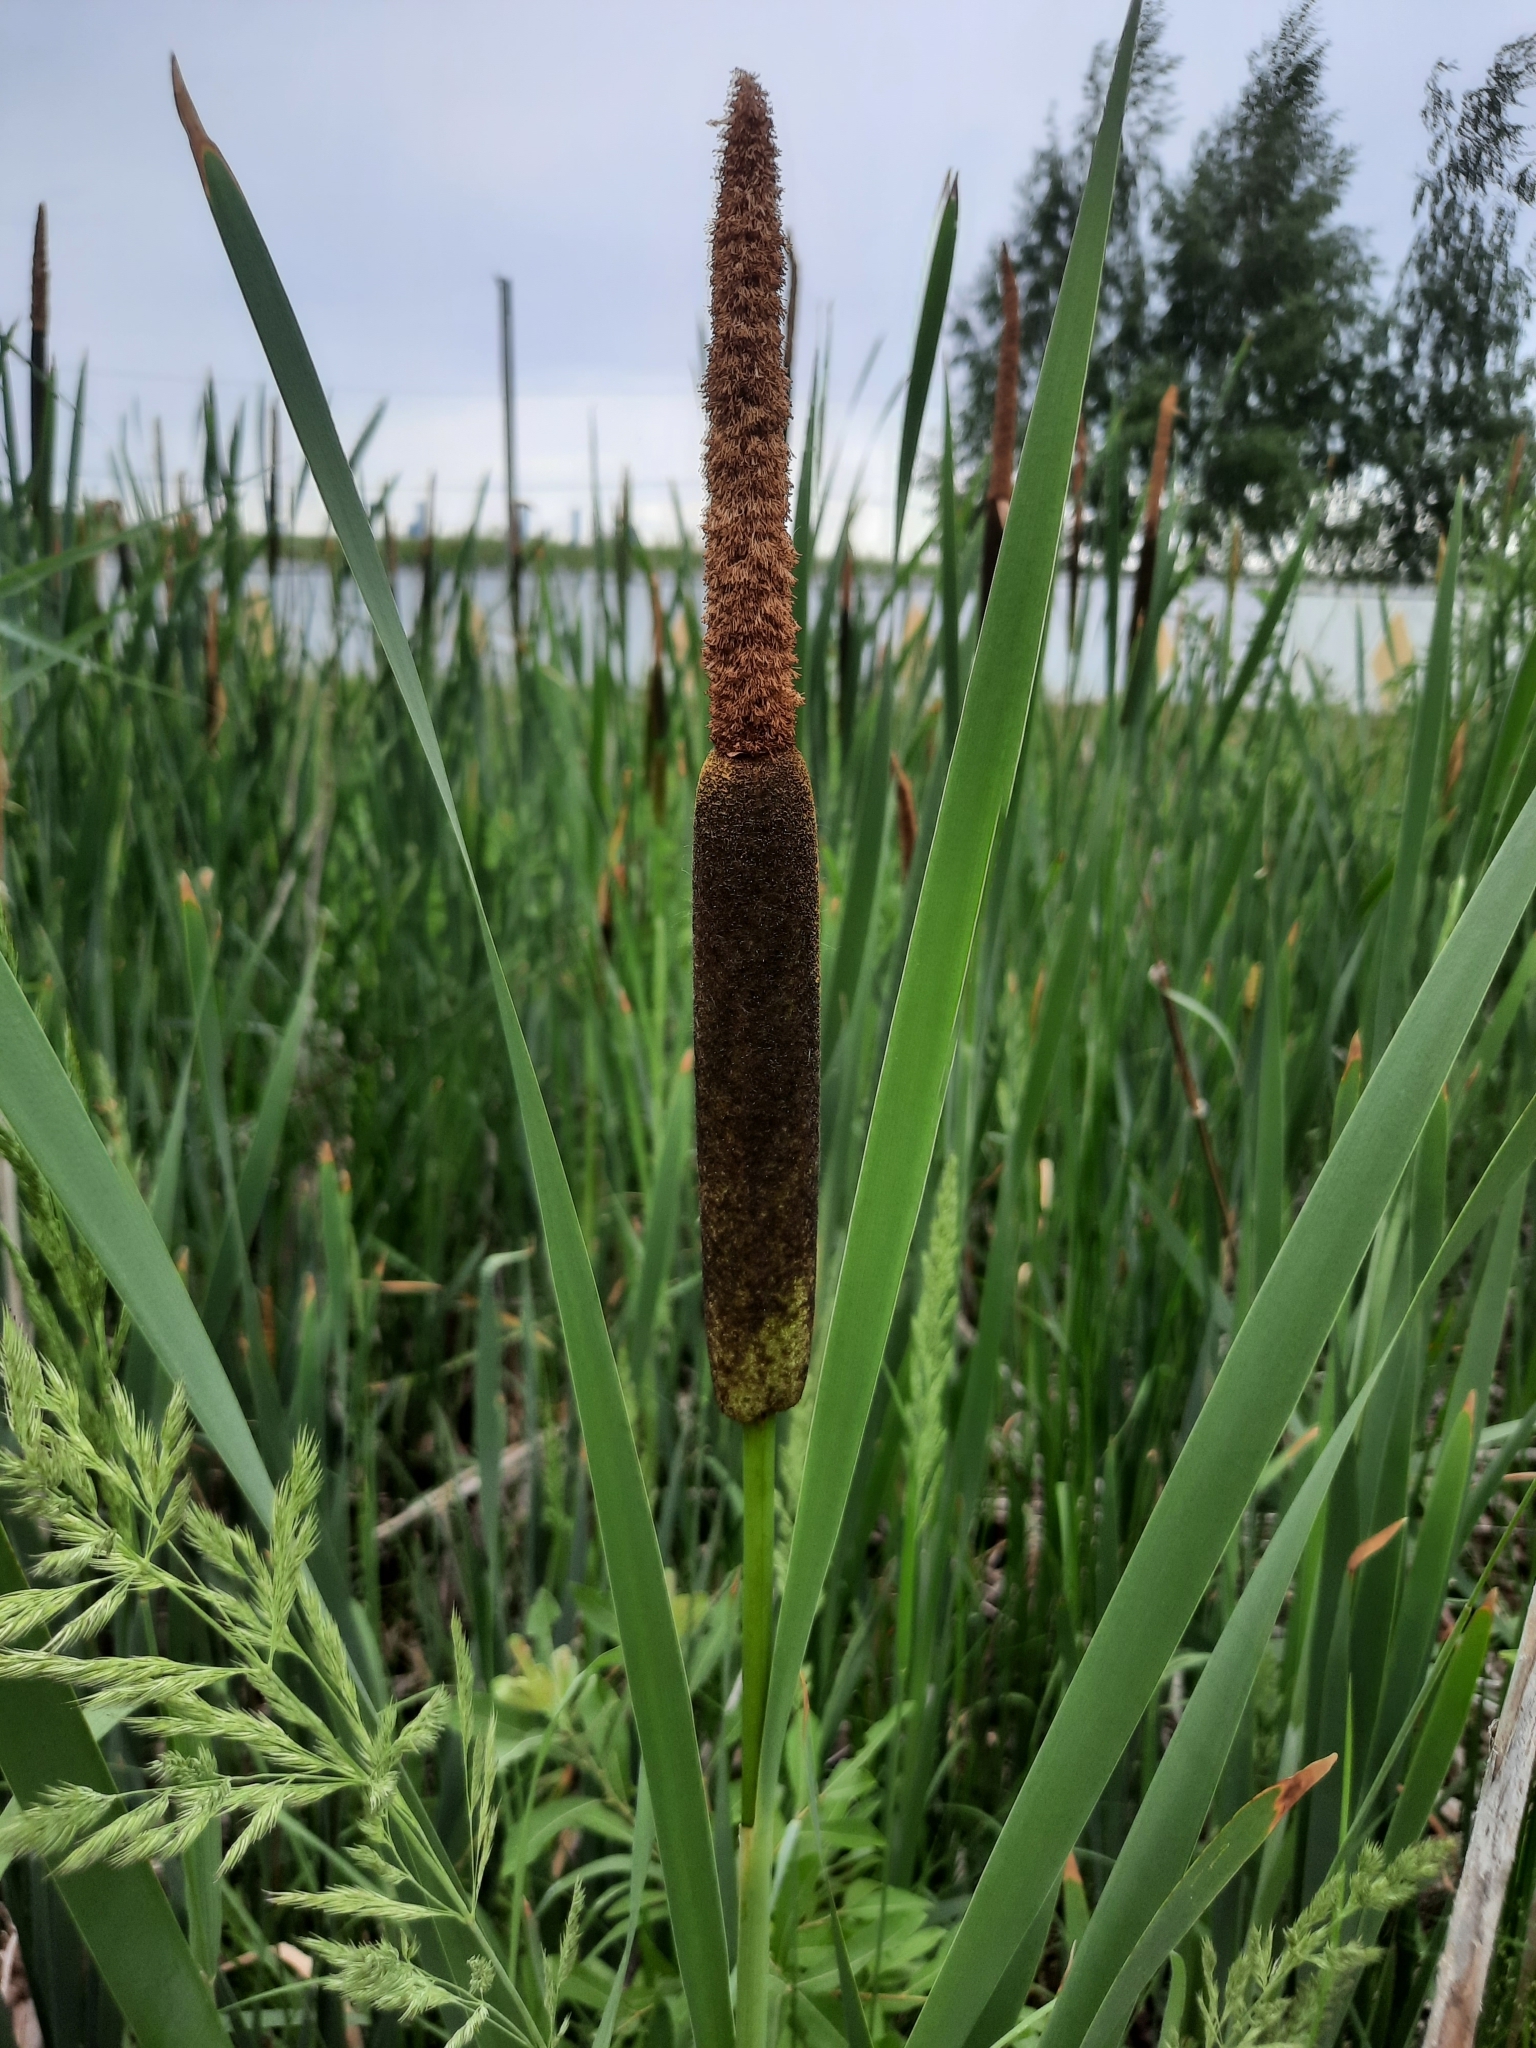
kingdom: Plantae
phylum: Tracheophyta
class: Liliopsida
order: Poales
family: Typhaceae
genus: Typha
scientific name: Typha latifolia
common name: Broadleaf cattail
